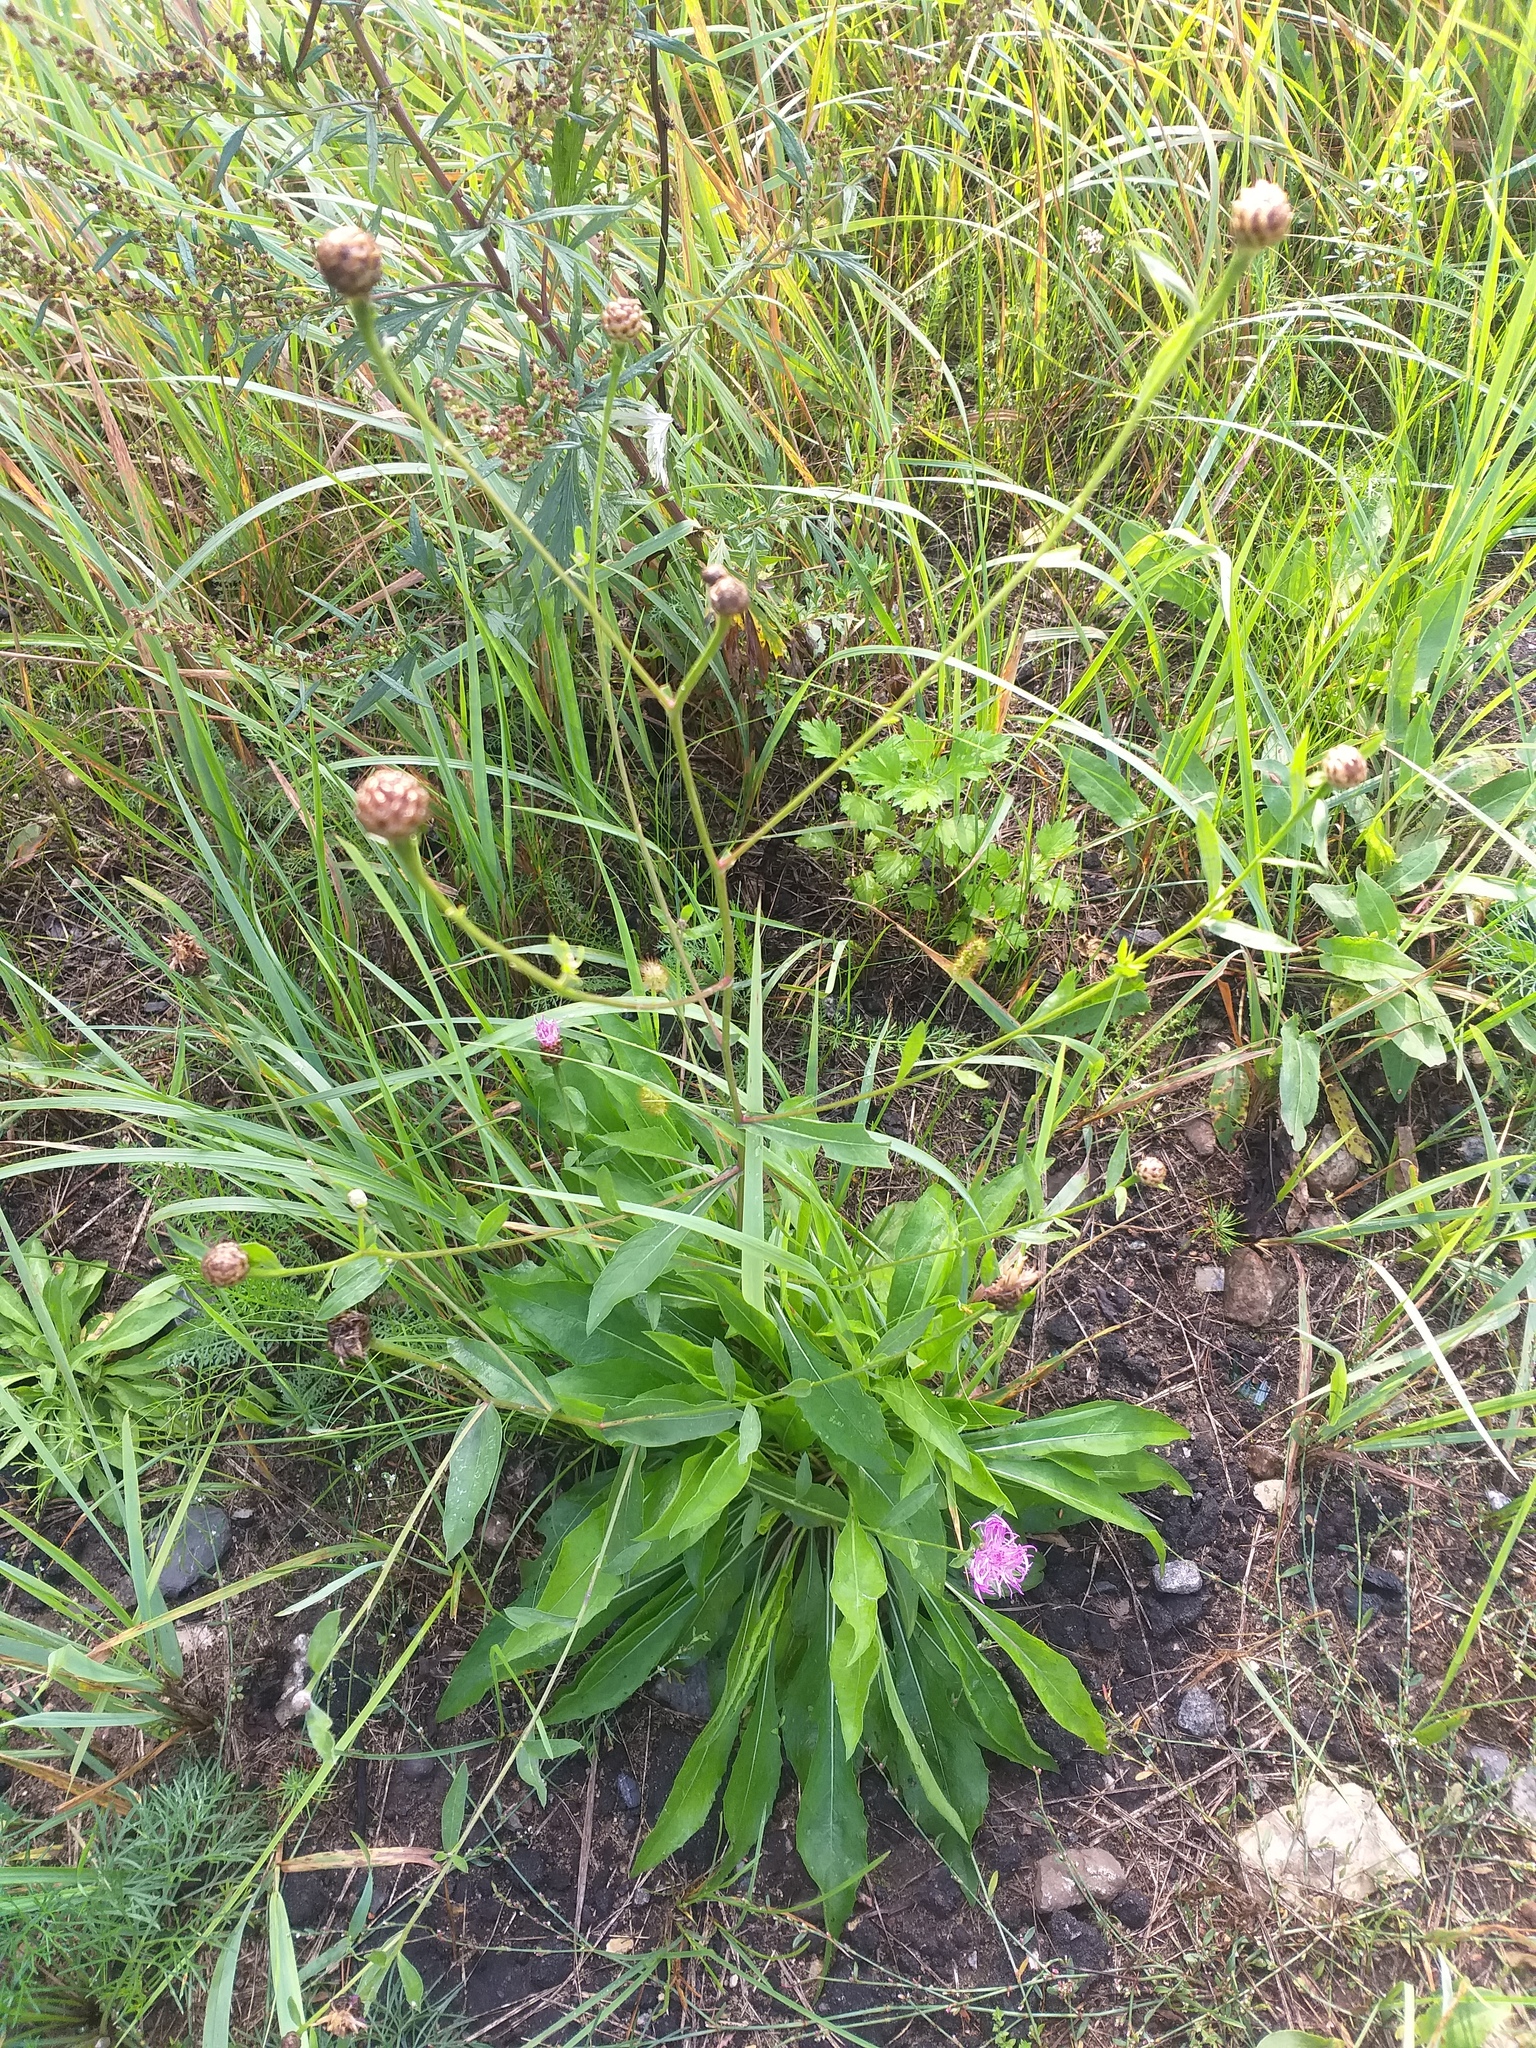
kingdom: Plantae
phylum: Tracheophyta
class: Magnoliopsida
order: Asterales
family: Asteraceae
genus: Centaurea
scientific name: Centaurea jacea
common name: Brown knapweed
